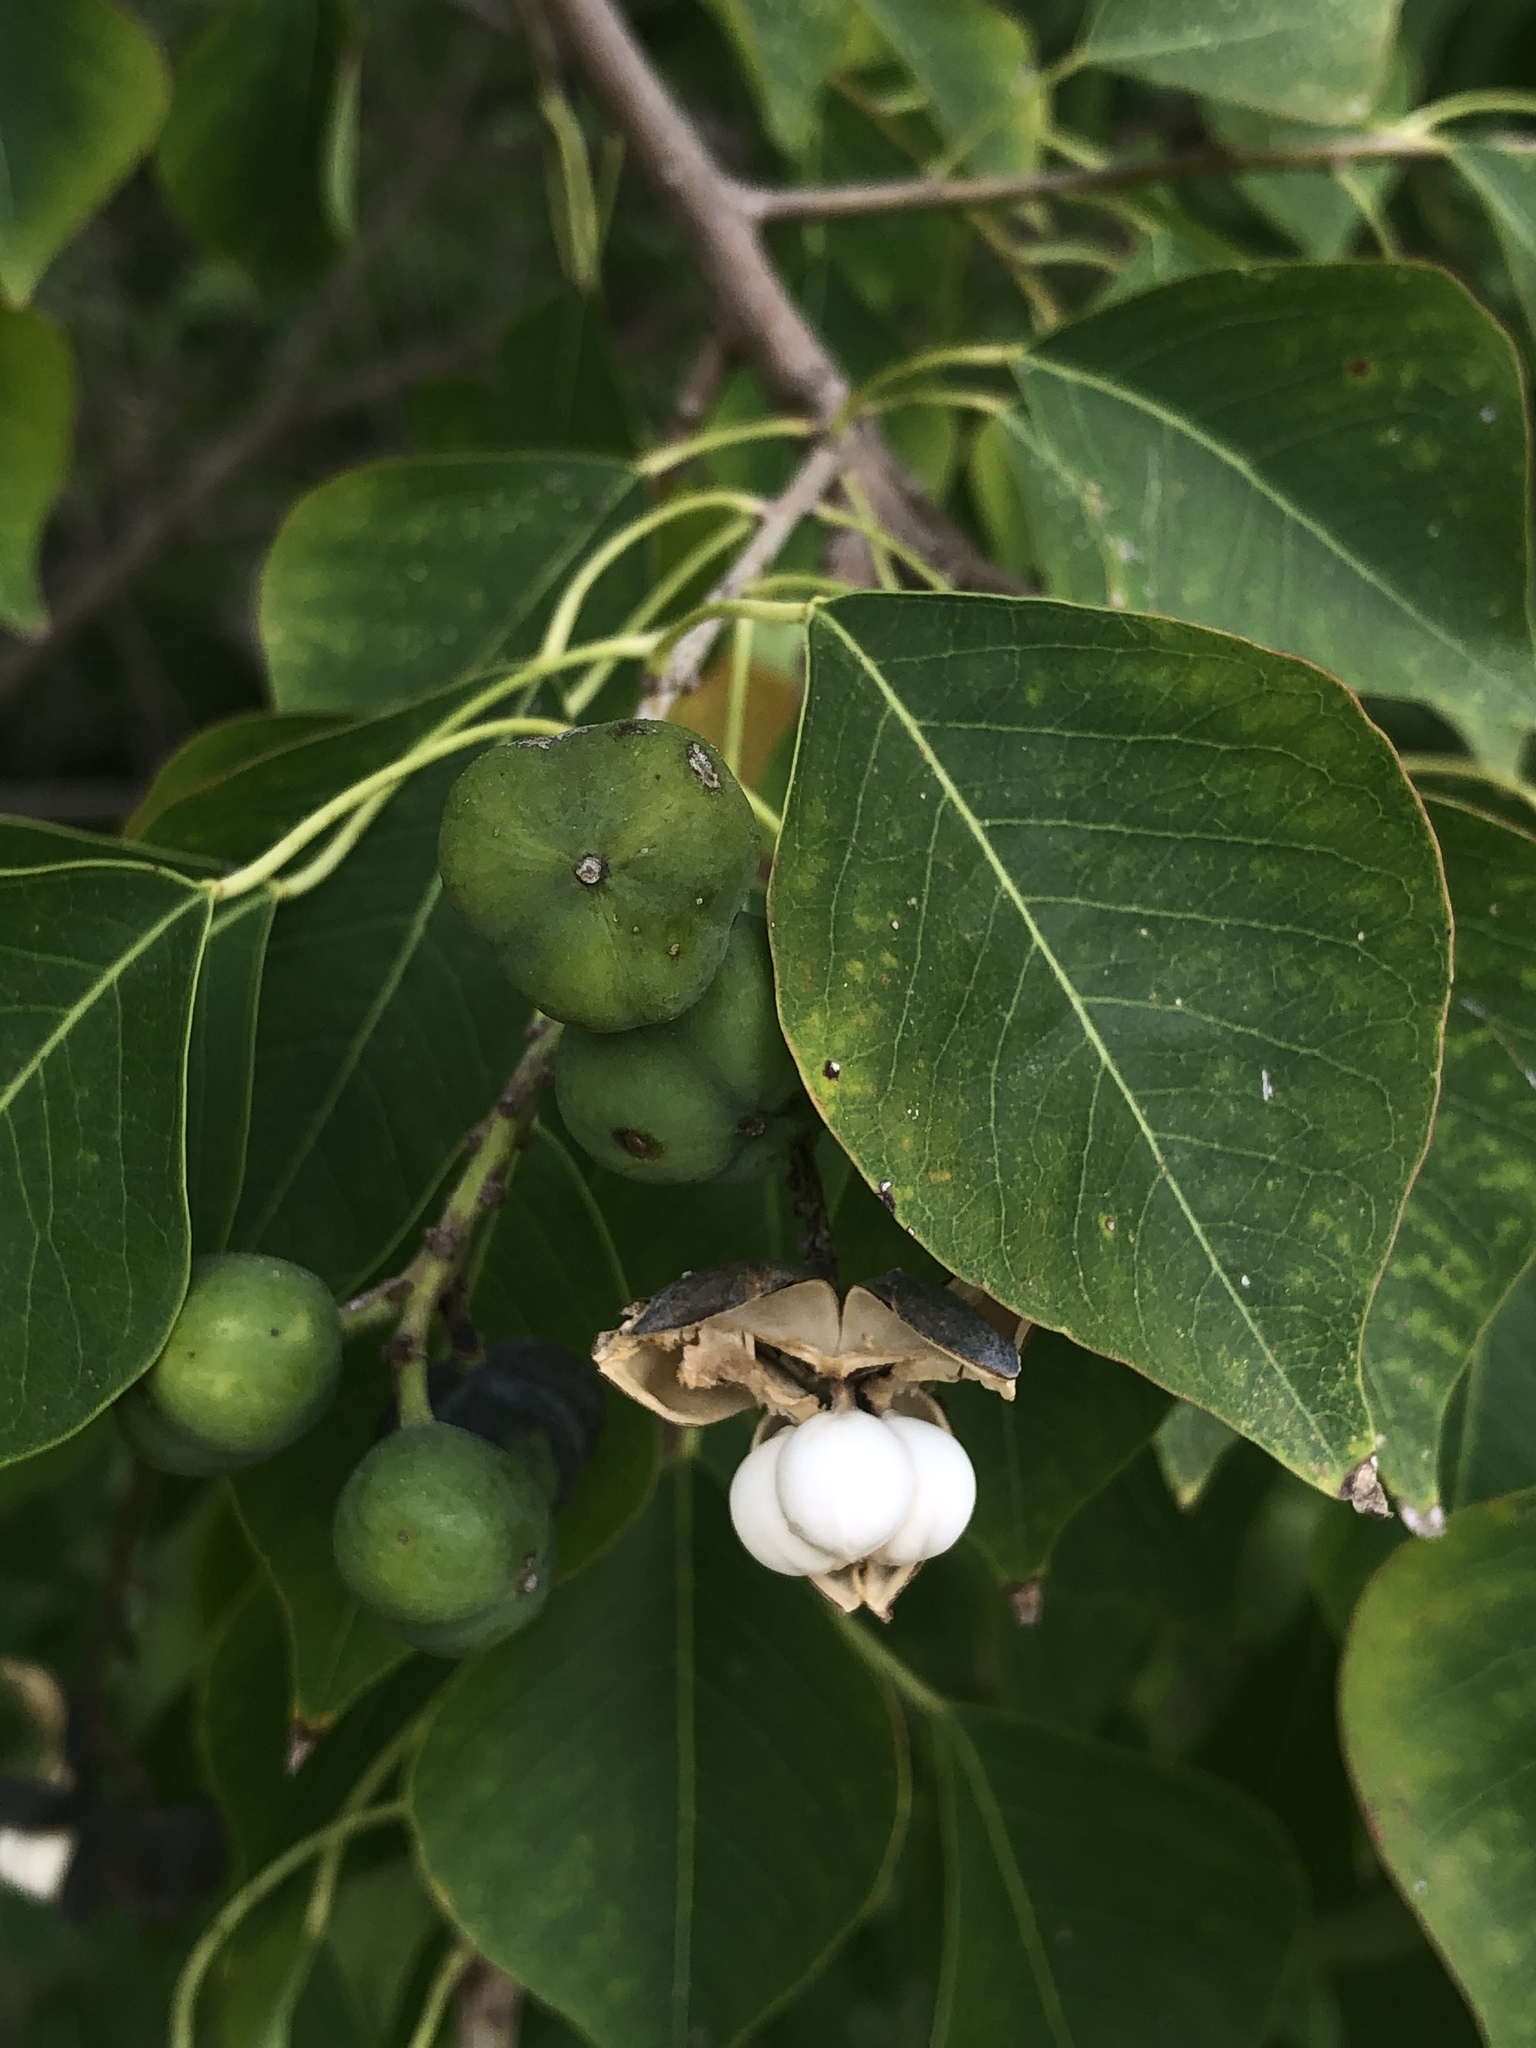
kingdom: Plantae
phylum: Tracheophyta
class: Magnoliopsida
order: Malpighiales
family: Euphorbiaceae
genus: Triadica
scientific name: Triadica sebifera
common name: Chinese tallow
